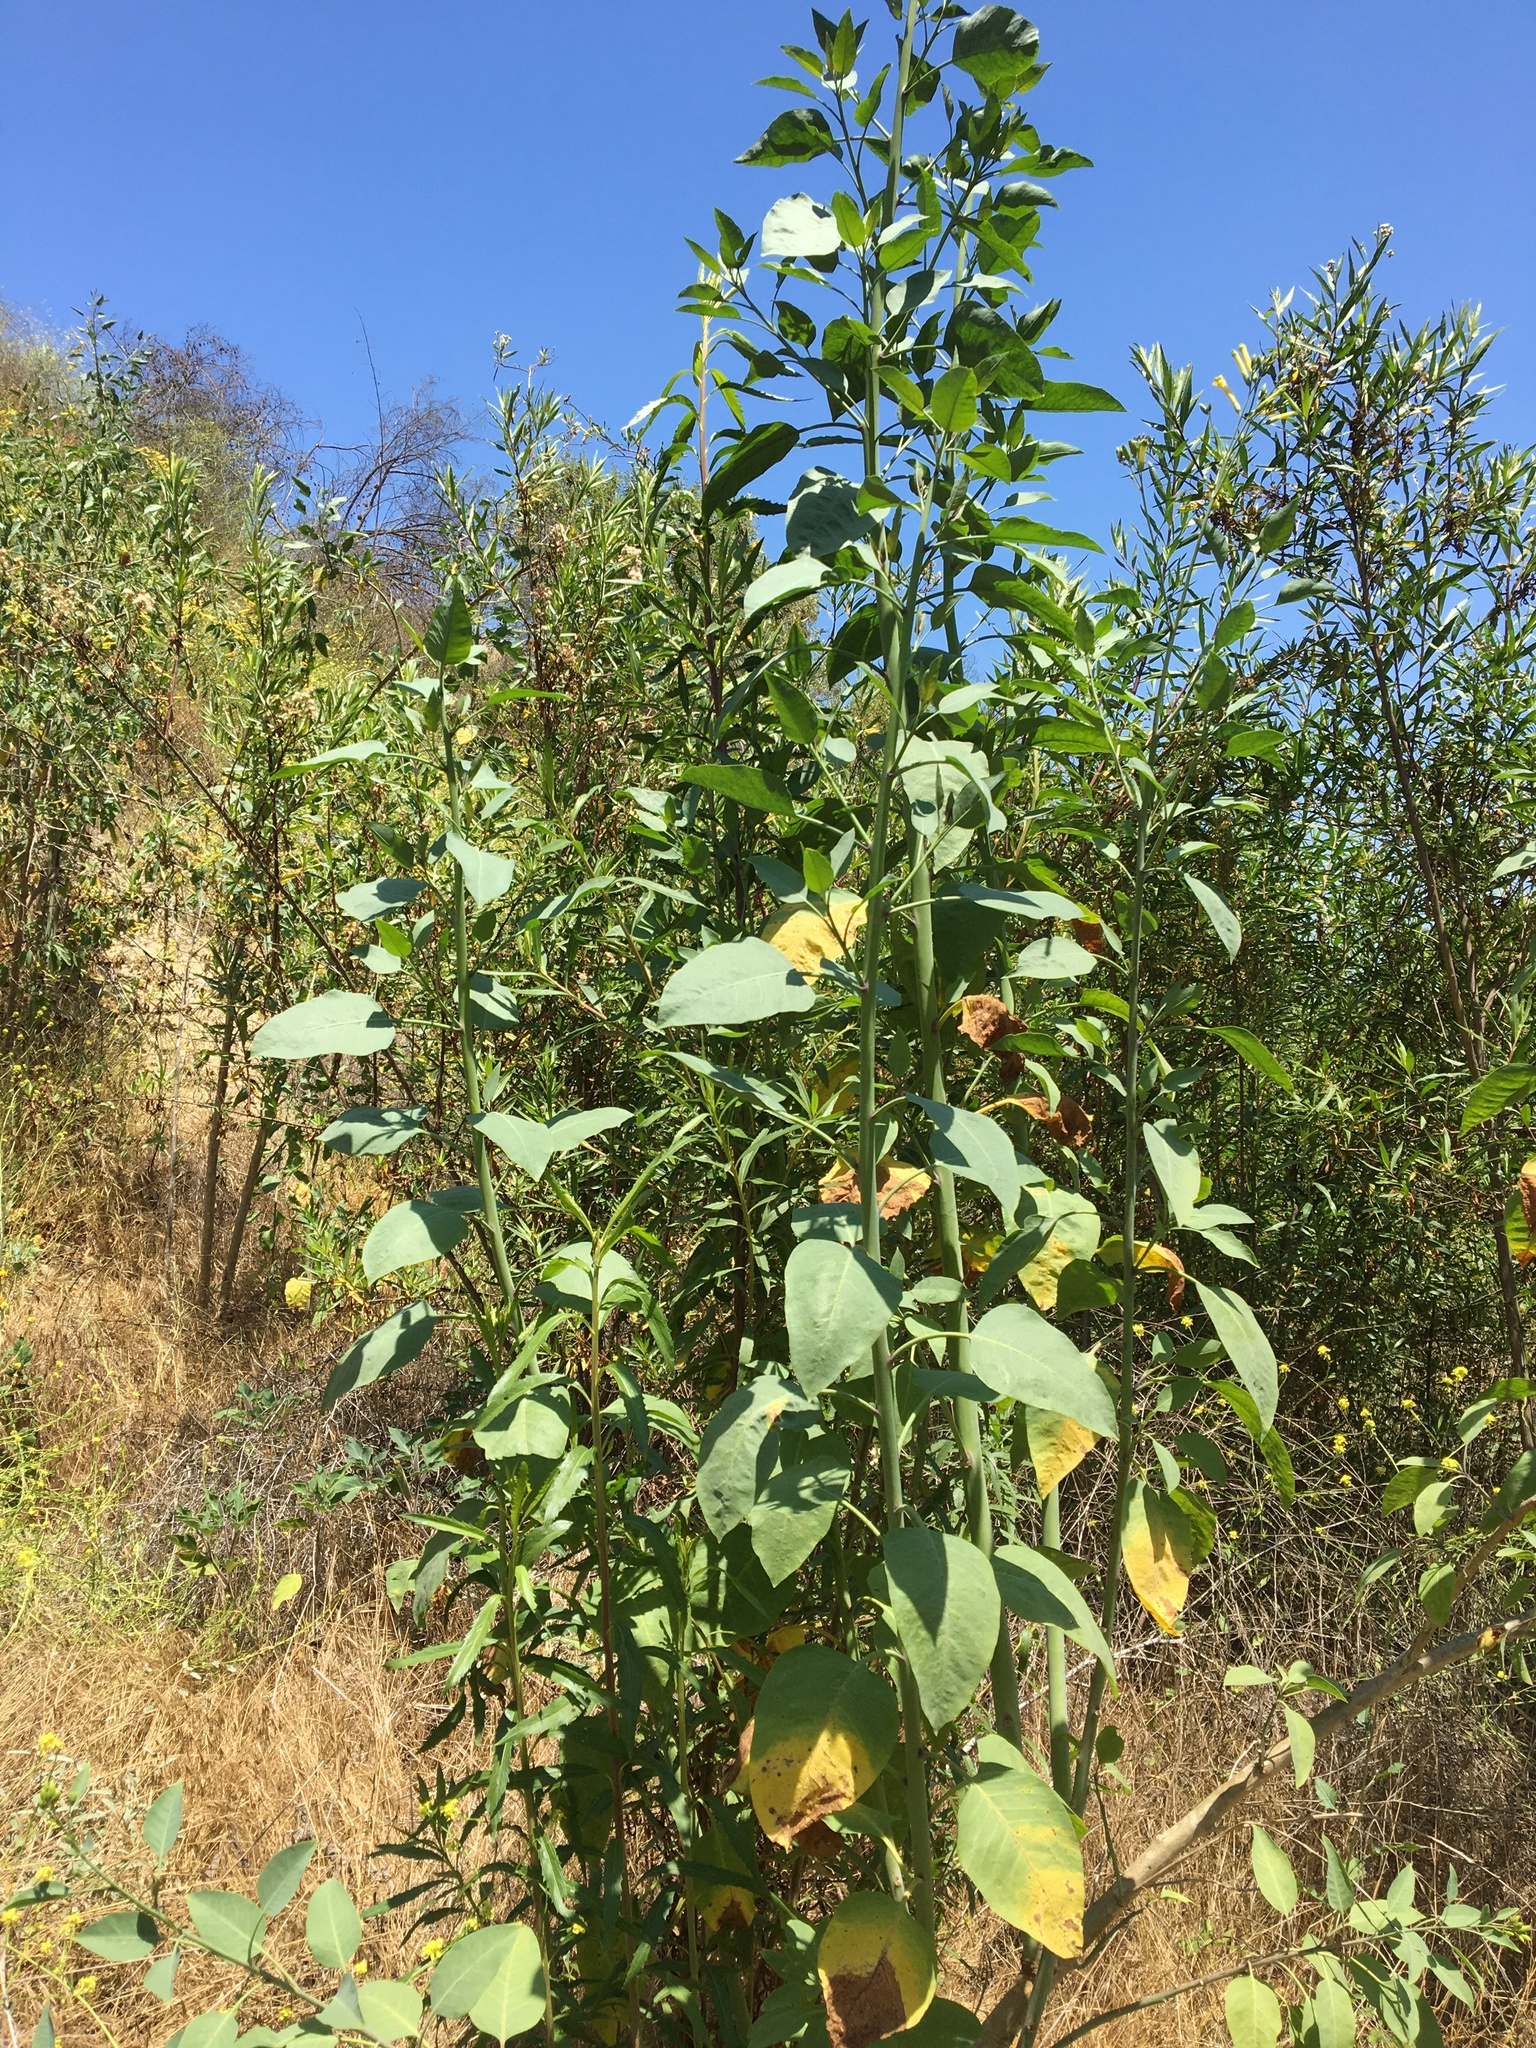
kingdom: Plantae
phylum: Tracheophyta
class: Magnoliopsida
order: Solanales
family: Solanaceae
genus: Nicotiana
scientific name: Nicotiana glauca
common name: Tree tobacco
